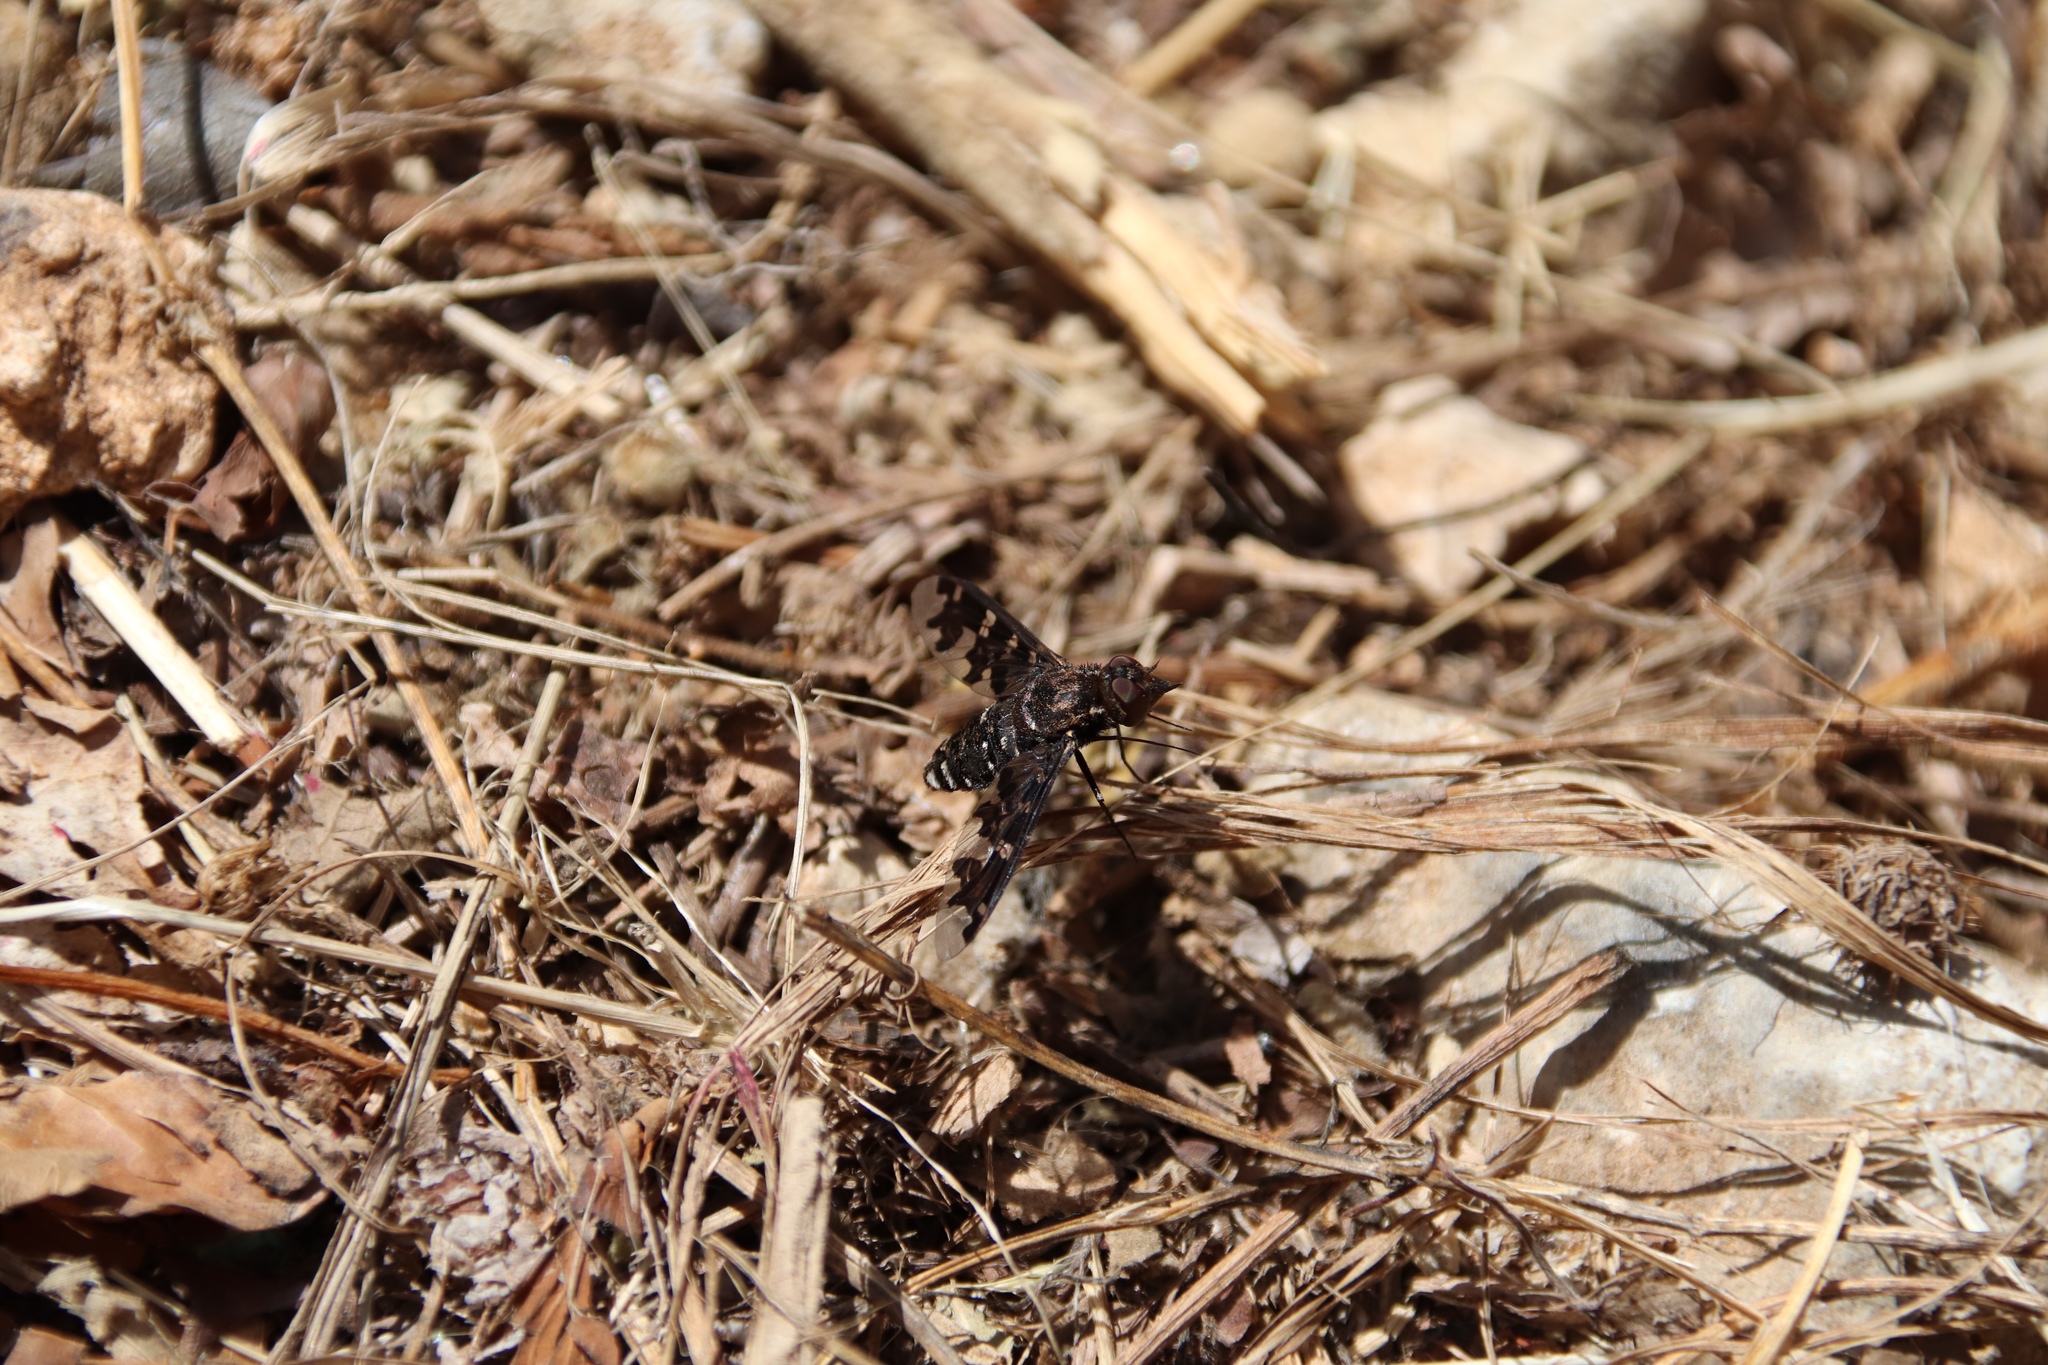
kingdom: Animalia
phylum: Arthropoda
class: Insecta
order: Diptera
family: Bombyliidae
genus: Exoprosopa
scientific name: Exoprosopa jacchus
